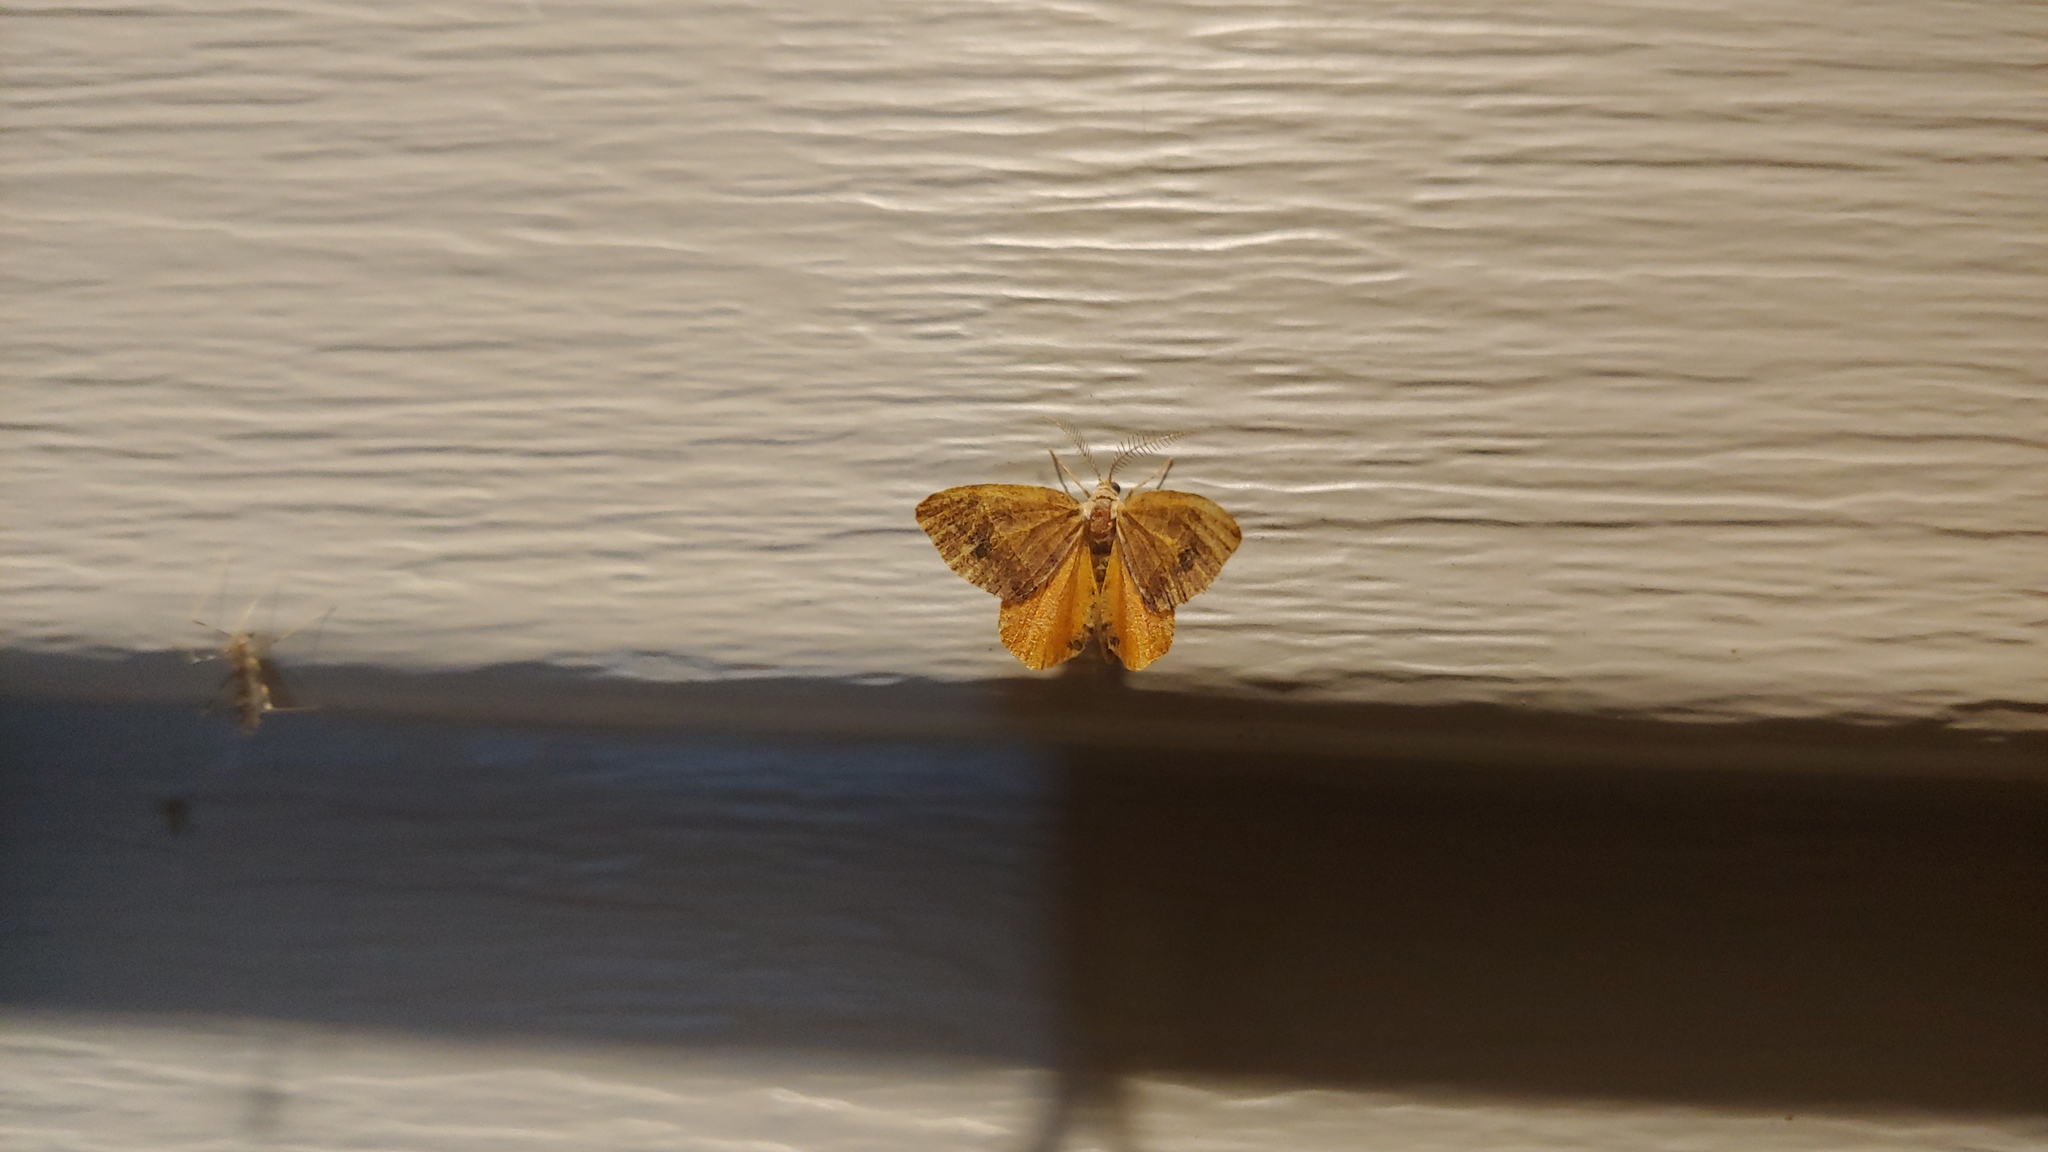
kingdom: Animalia
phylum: Arthropoda
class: Insecta
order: Lepidoptera
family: Geometridae
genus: Mellilla
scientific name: Mellilla xanthometata
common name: Orange wing moth
